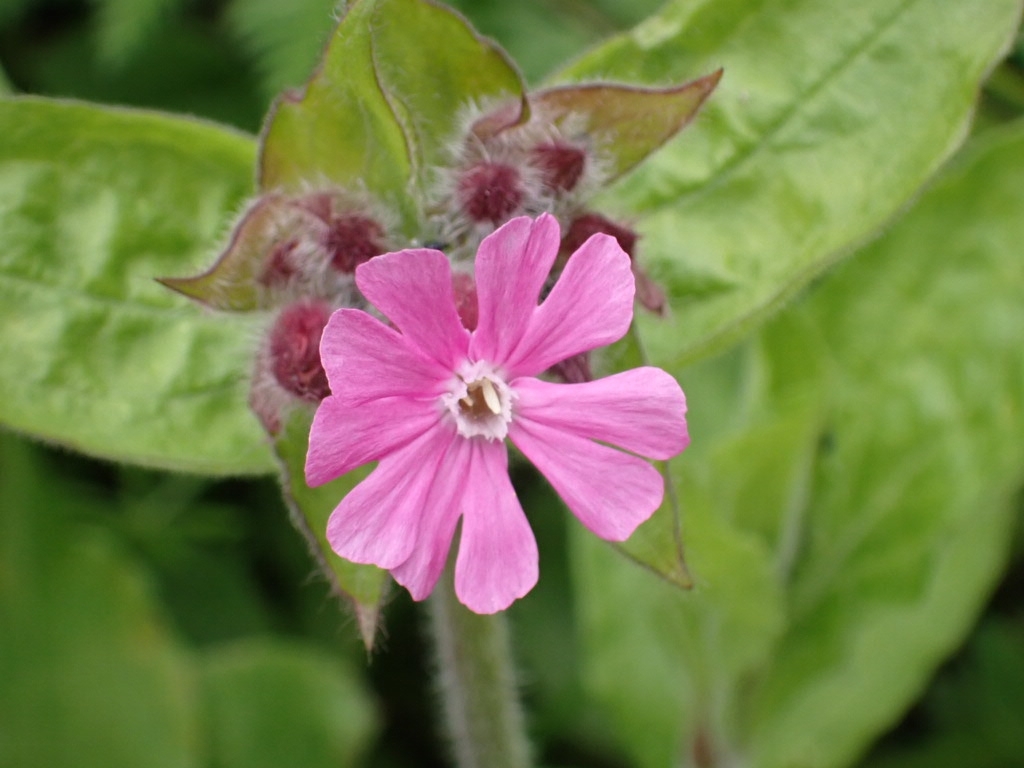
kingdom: Plantae
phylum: Tracheophyta
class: Magnoliopsida
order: Caryophyllales
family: Caryophyllaceae
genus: Silene
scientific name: Silene dioica
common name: Red campion
